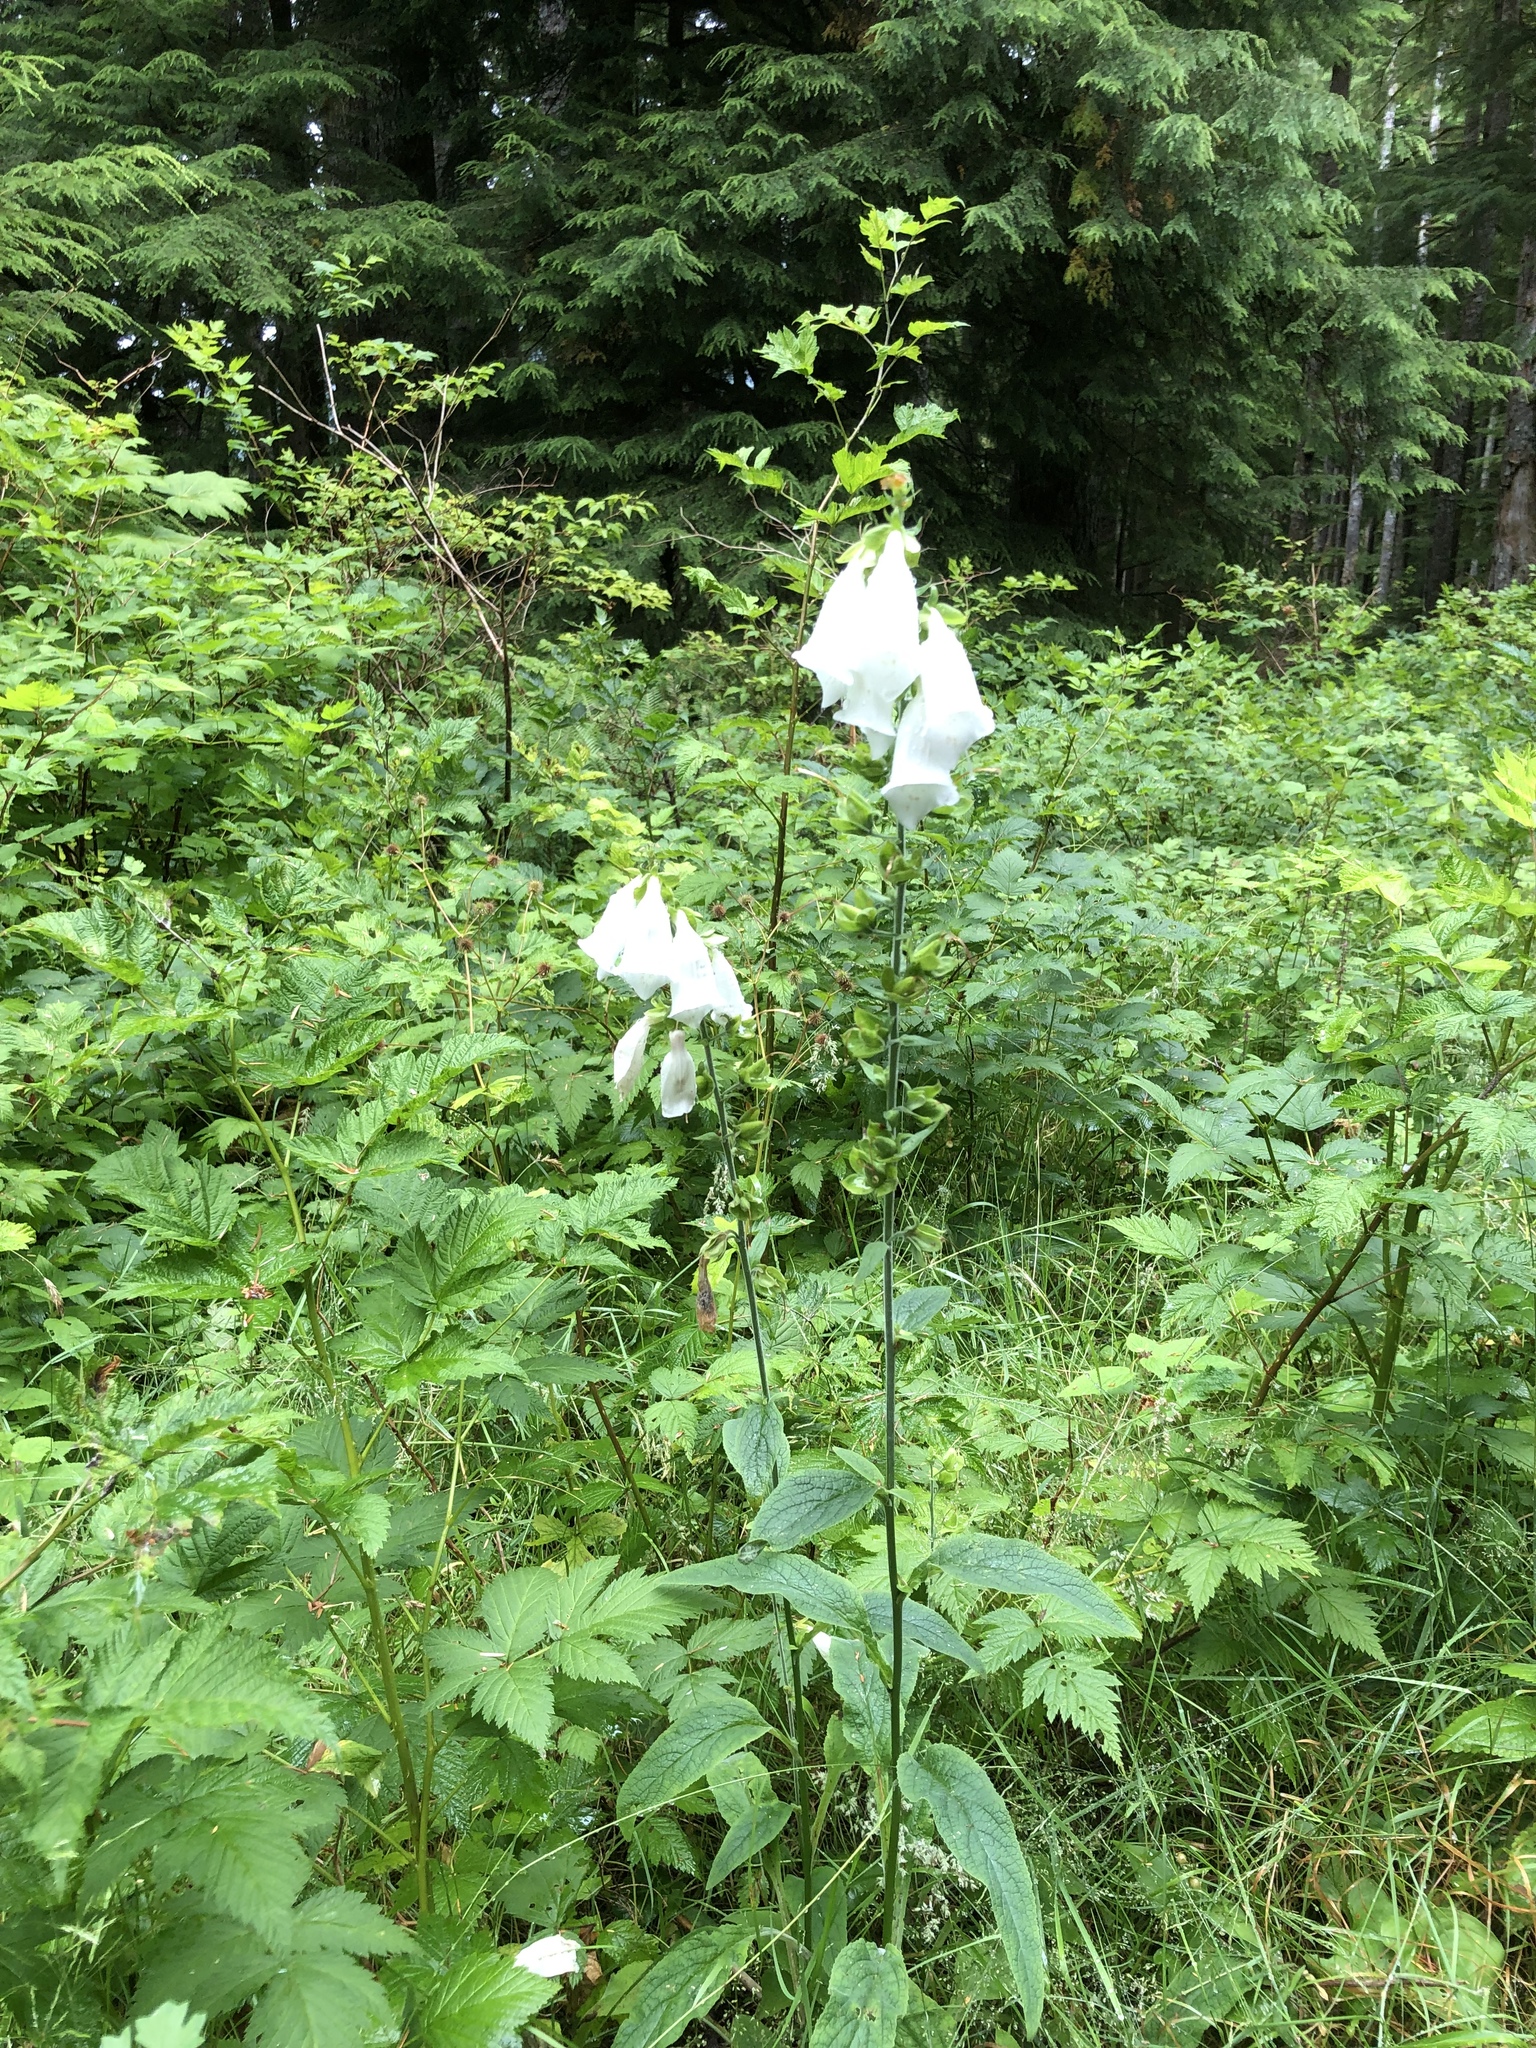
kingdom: Plantae
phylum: Tracheophyta
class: Magnoliopsida
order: Lamiales
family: Plantaginaceae
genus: Digitalis
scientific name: Digitalis purpurea
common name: Foxglove
